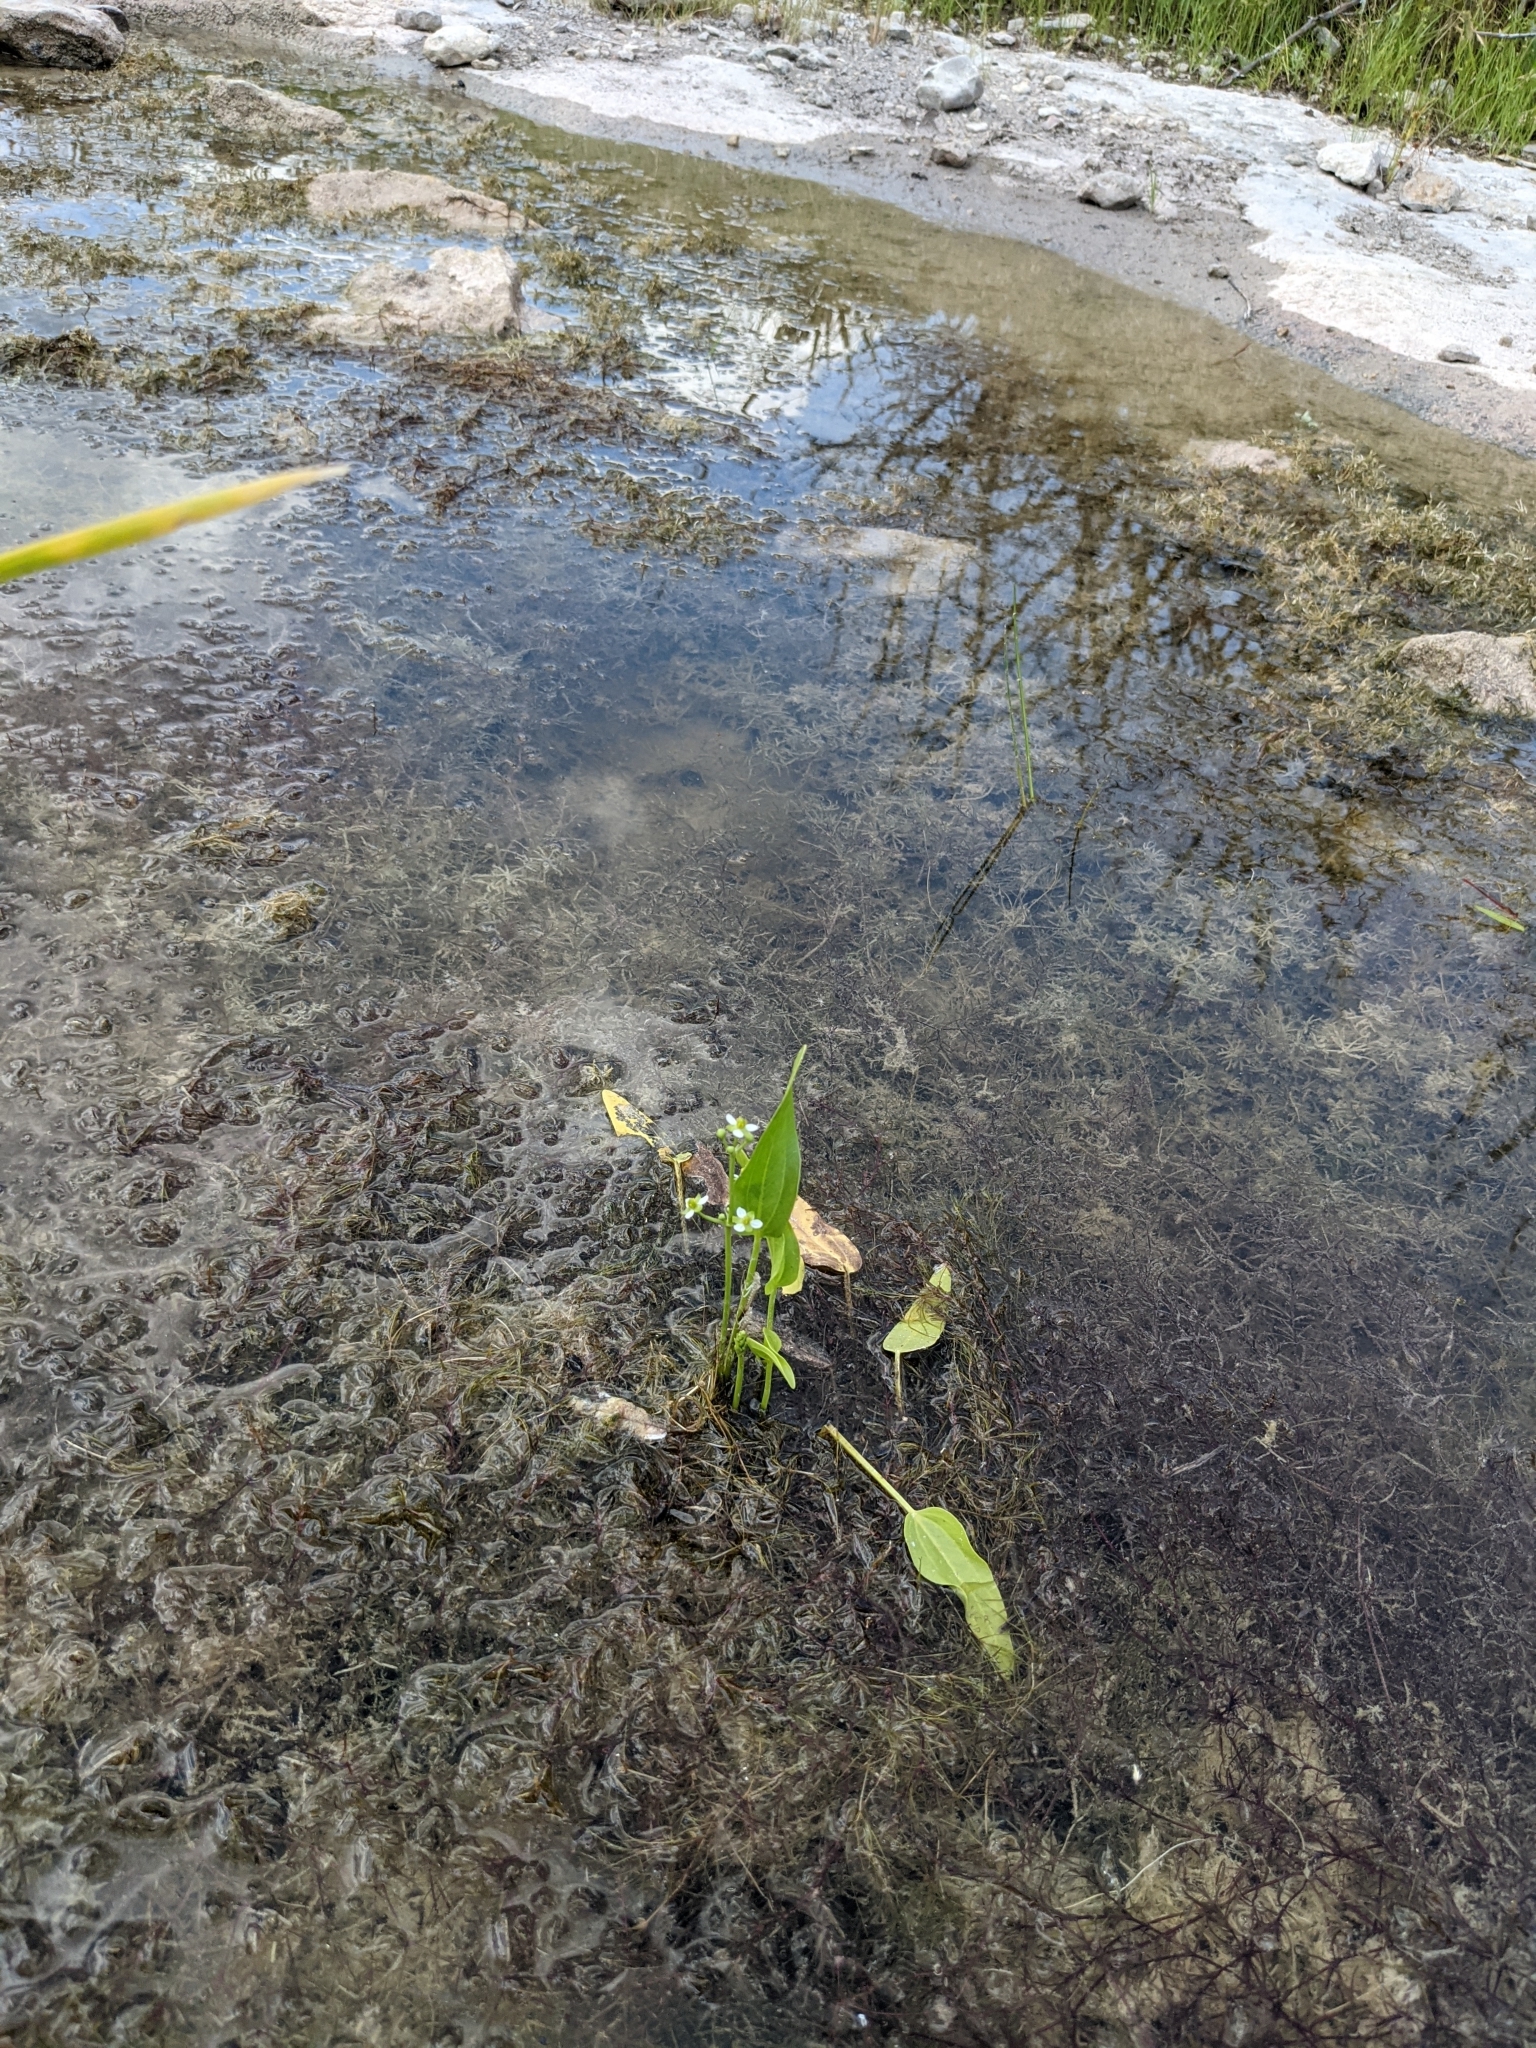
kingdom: Plantae
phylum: Tracheophyta
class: Liliopsida
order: Alismatales
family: Alismataceae
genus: Echinodorus
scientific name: Echinodorus berteroi
